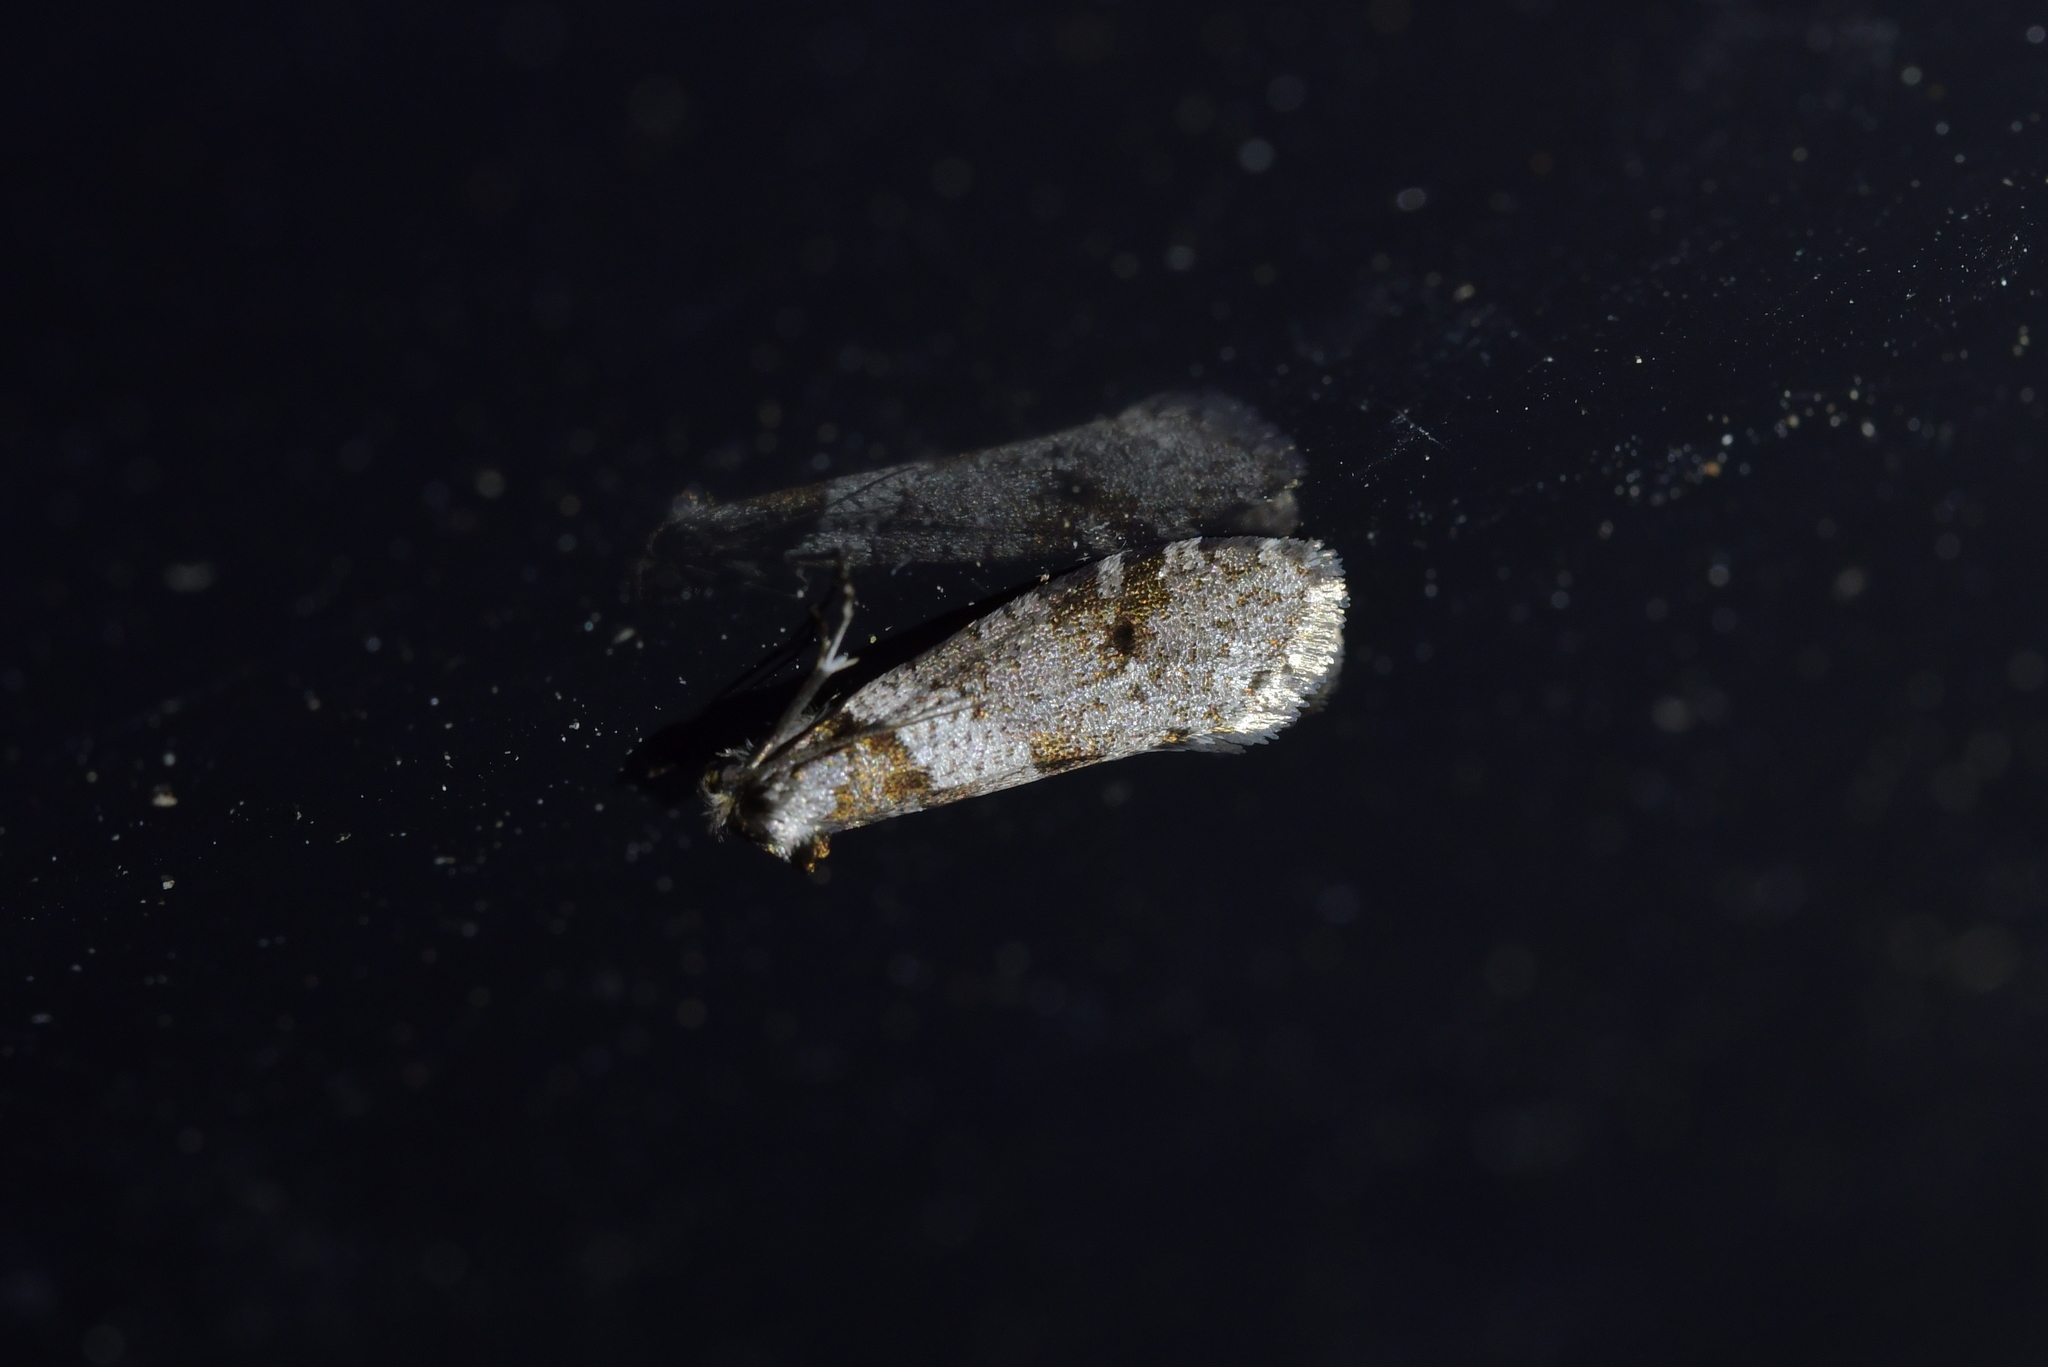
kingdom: Animalia
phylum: Arthropoda
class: Insecta
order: Lepidoptera
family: Psychidae
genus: Lepidoscia
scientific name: Lepidoscia heliochares
